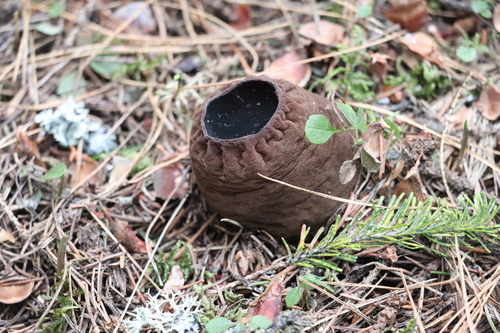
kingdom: Fungi
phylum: Ascomycota
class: Pezizomycetes
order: Pezizales
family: Sarcosomataceae
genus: Sarcosoma
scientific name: Sarcosoma globosum
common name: Charred-pancake cup
